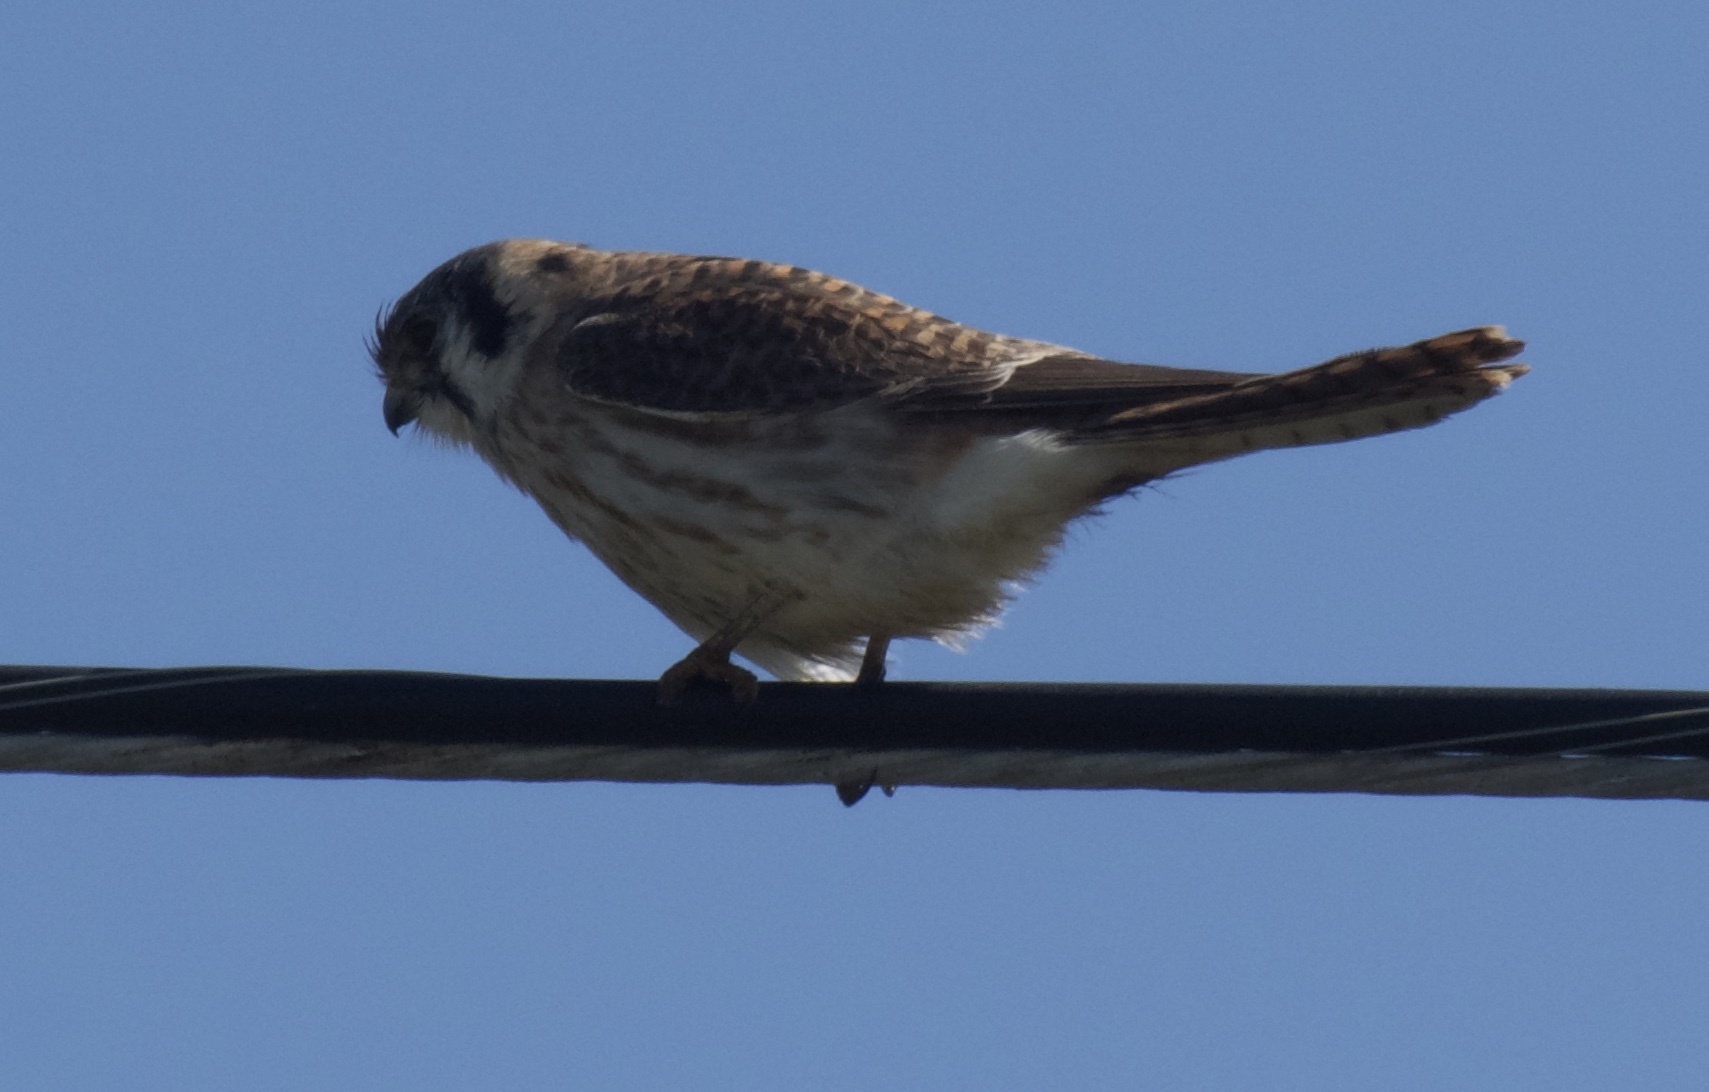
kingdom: Animalia
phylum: Chordata
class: Aves
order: Falconiformes
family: Falconidae
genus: Falco
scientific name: Falco sparverius
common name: American kestrel
